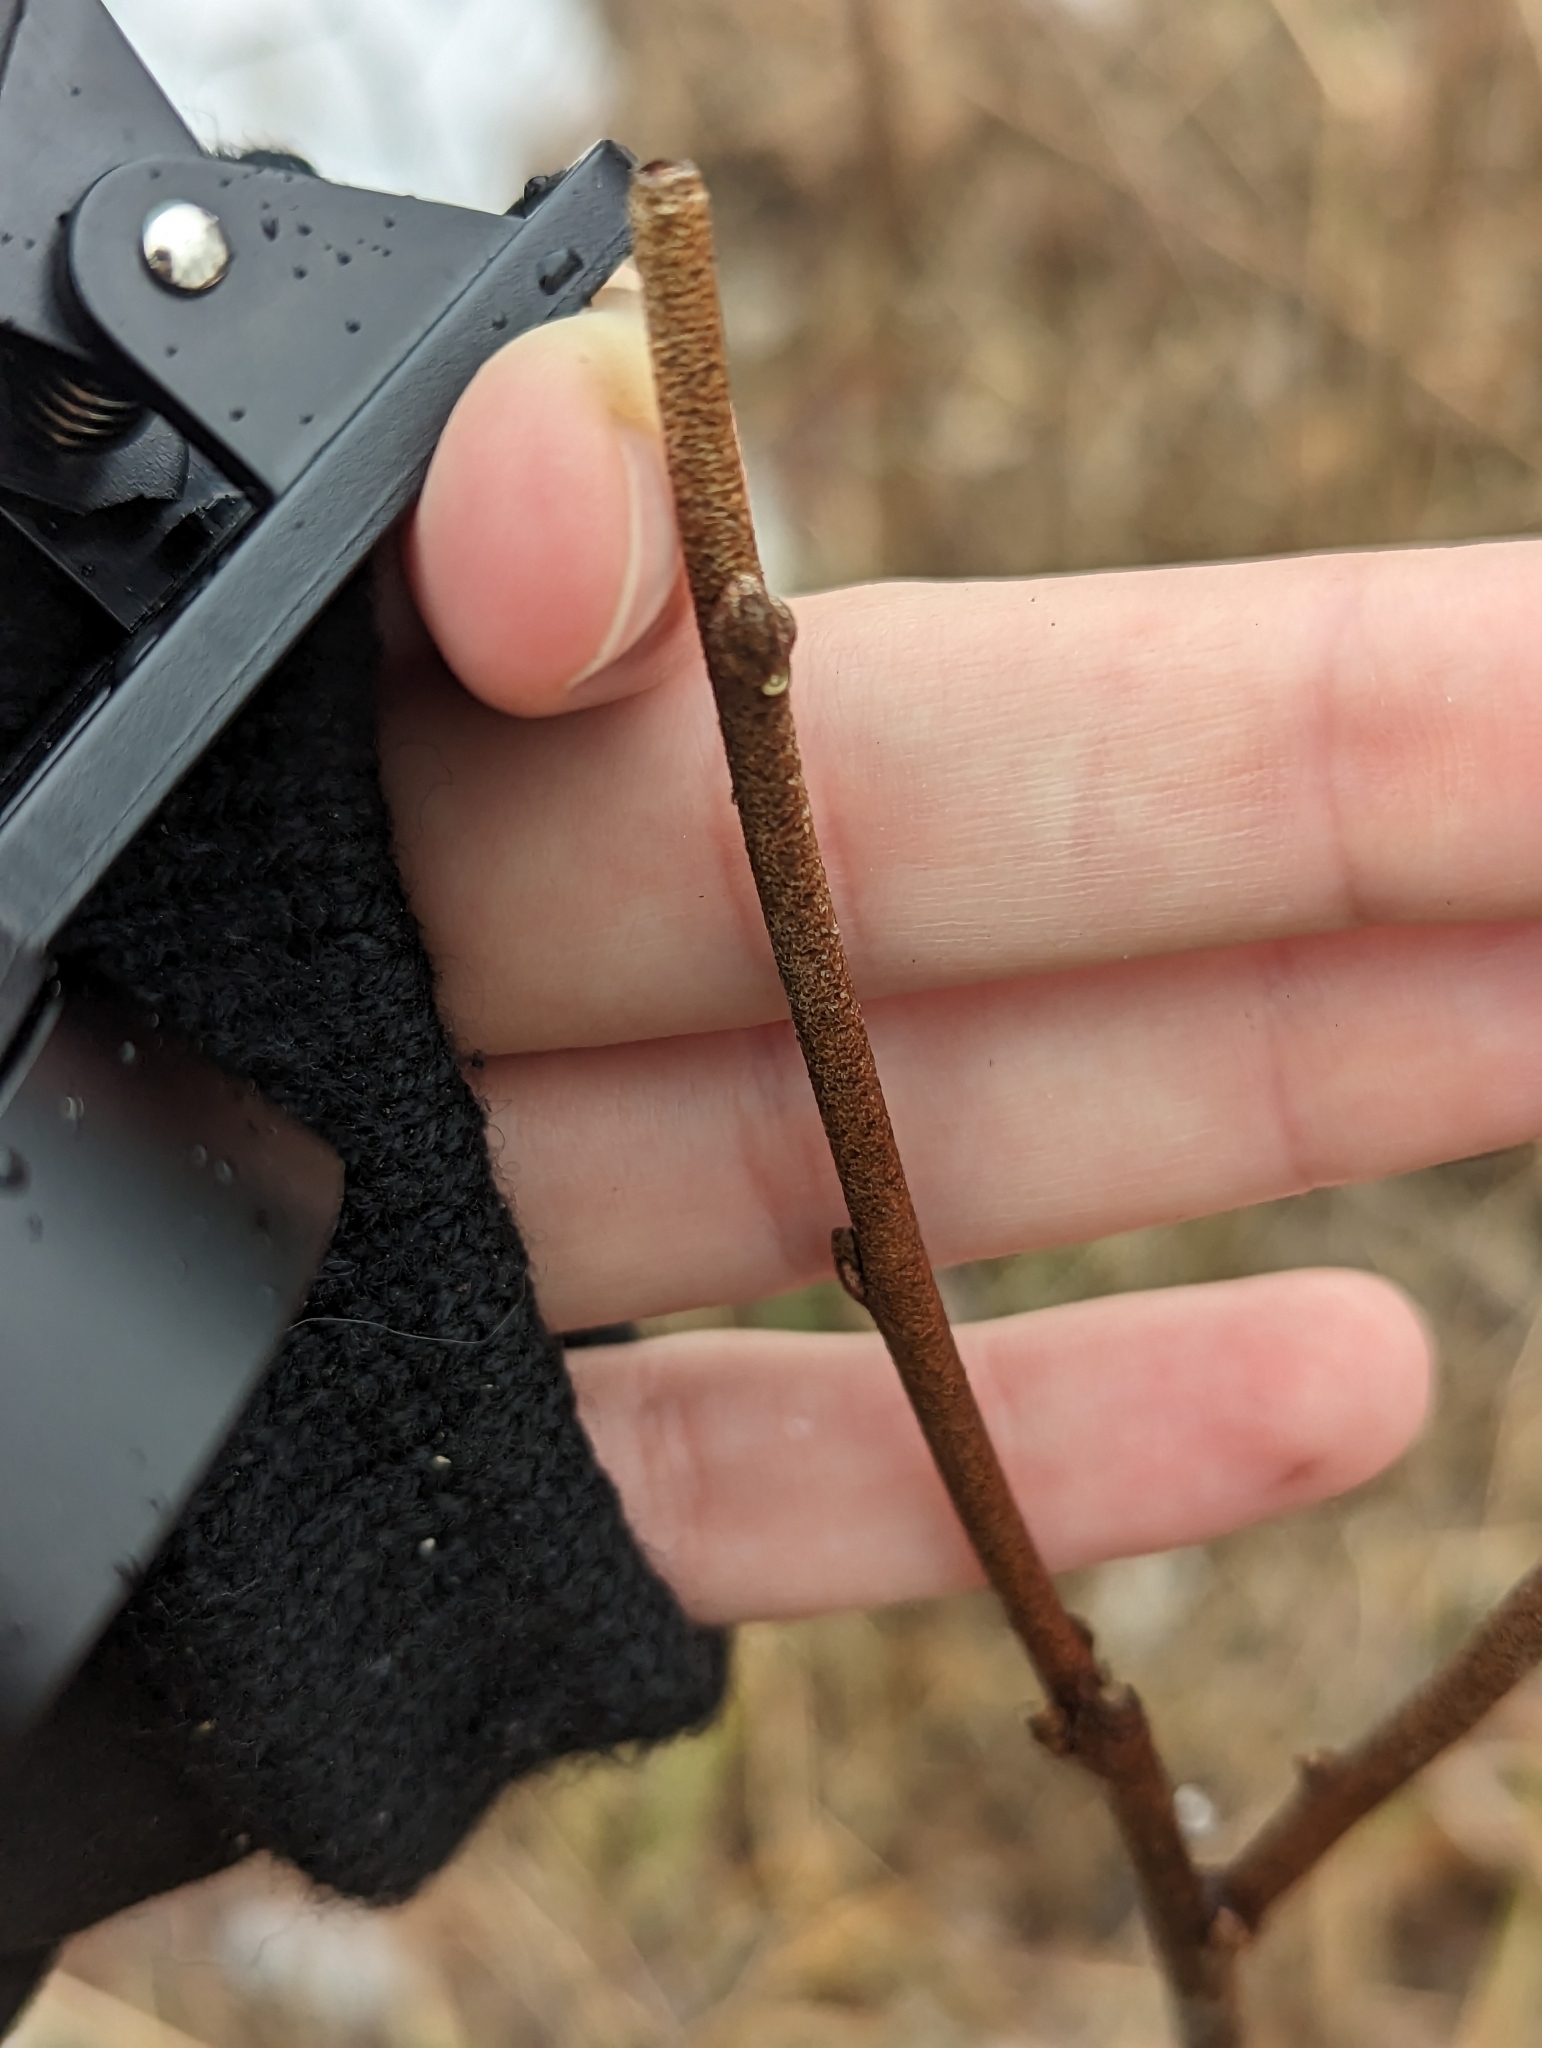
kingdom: Plantae
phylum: Tracheophyta
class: Magnoliopsida
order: Rosales
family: Elaeagnaceae
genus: Elaeagnus
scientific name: Elaeagnus umbellata
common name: Autumn olive
